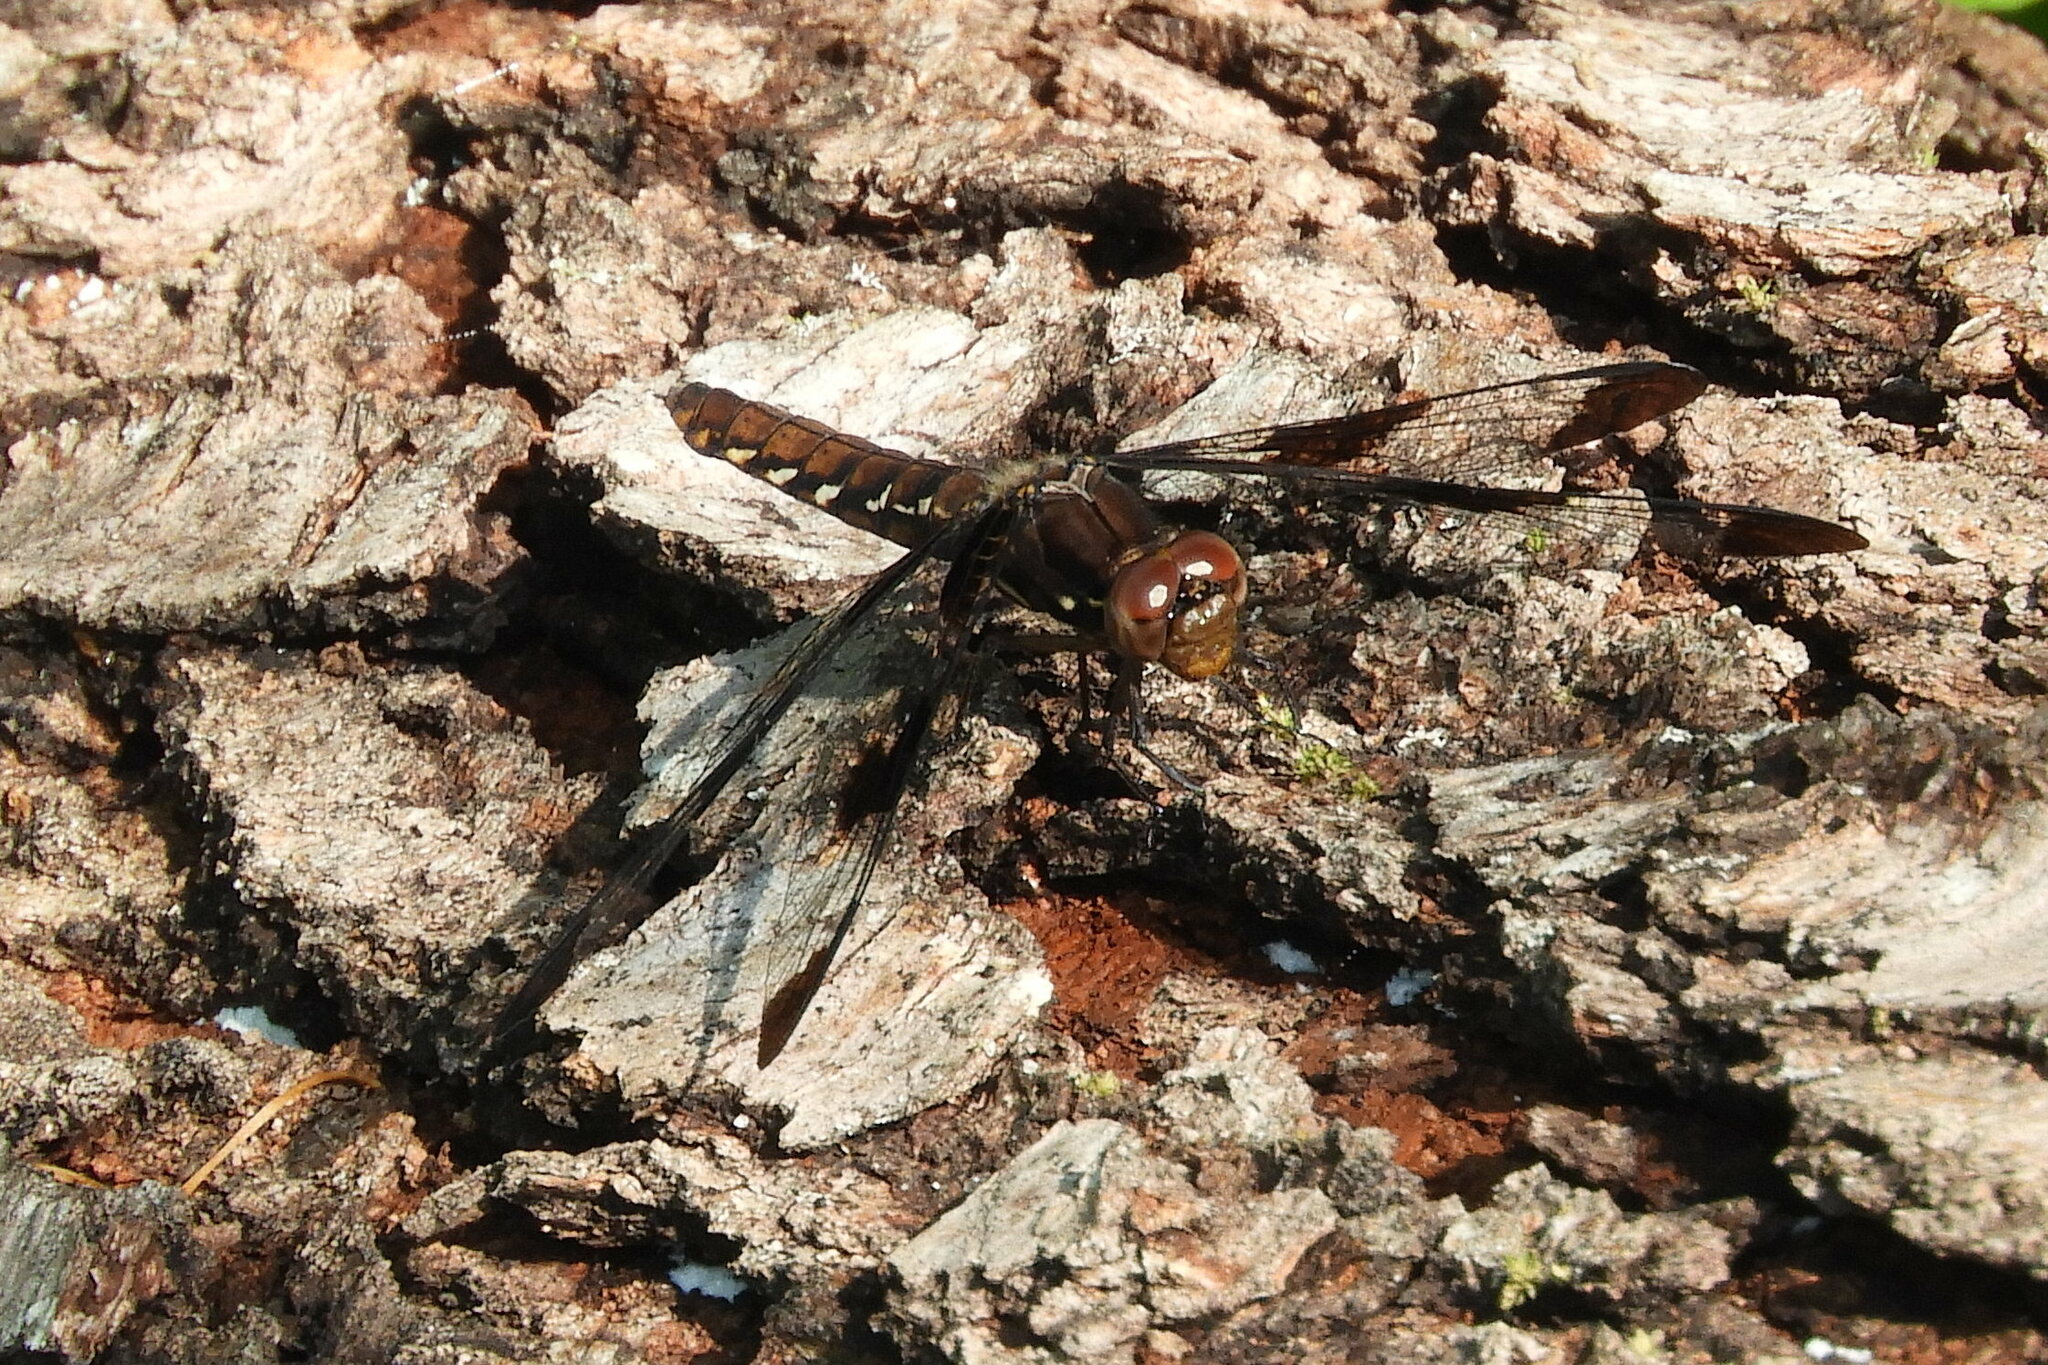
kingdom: Animalia
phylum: Arthropoda
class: Insecta
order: Odonata
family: Libellulidae
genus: Plathemis
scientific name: Plathemis lydia
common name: Common whitetail
